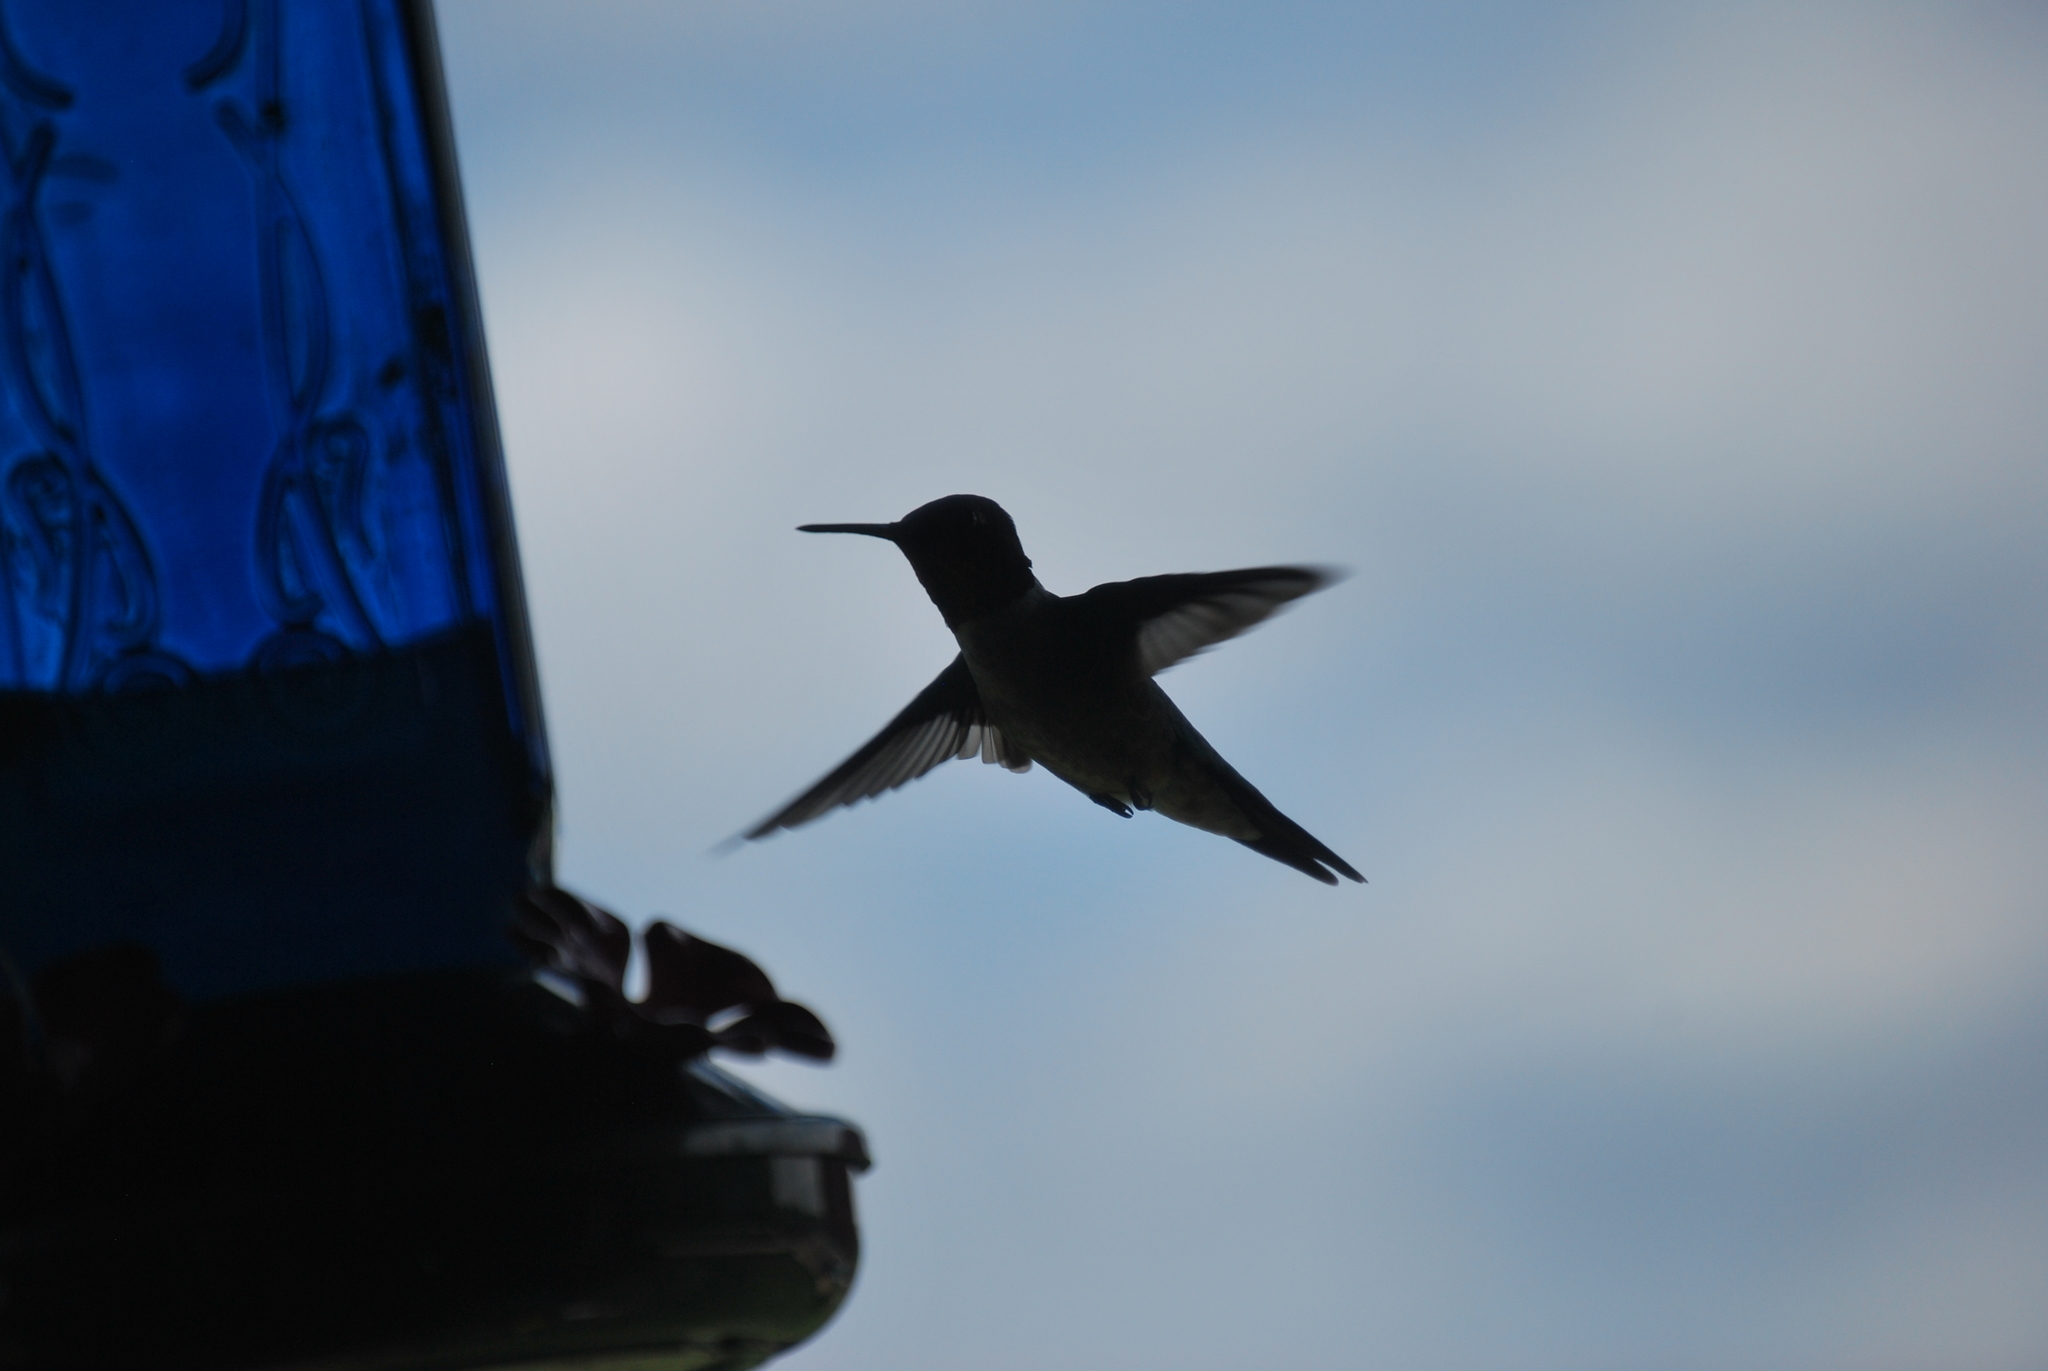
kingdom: Animalia
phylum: Chordata
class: Aves
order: Apodiformes
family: Trochilidae
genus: Archilochus
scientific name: Archilochus colubris
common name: Ruby-throated hummingbird
